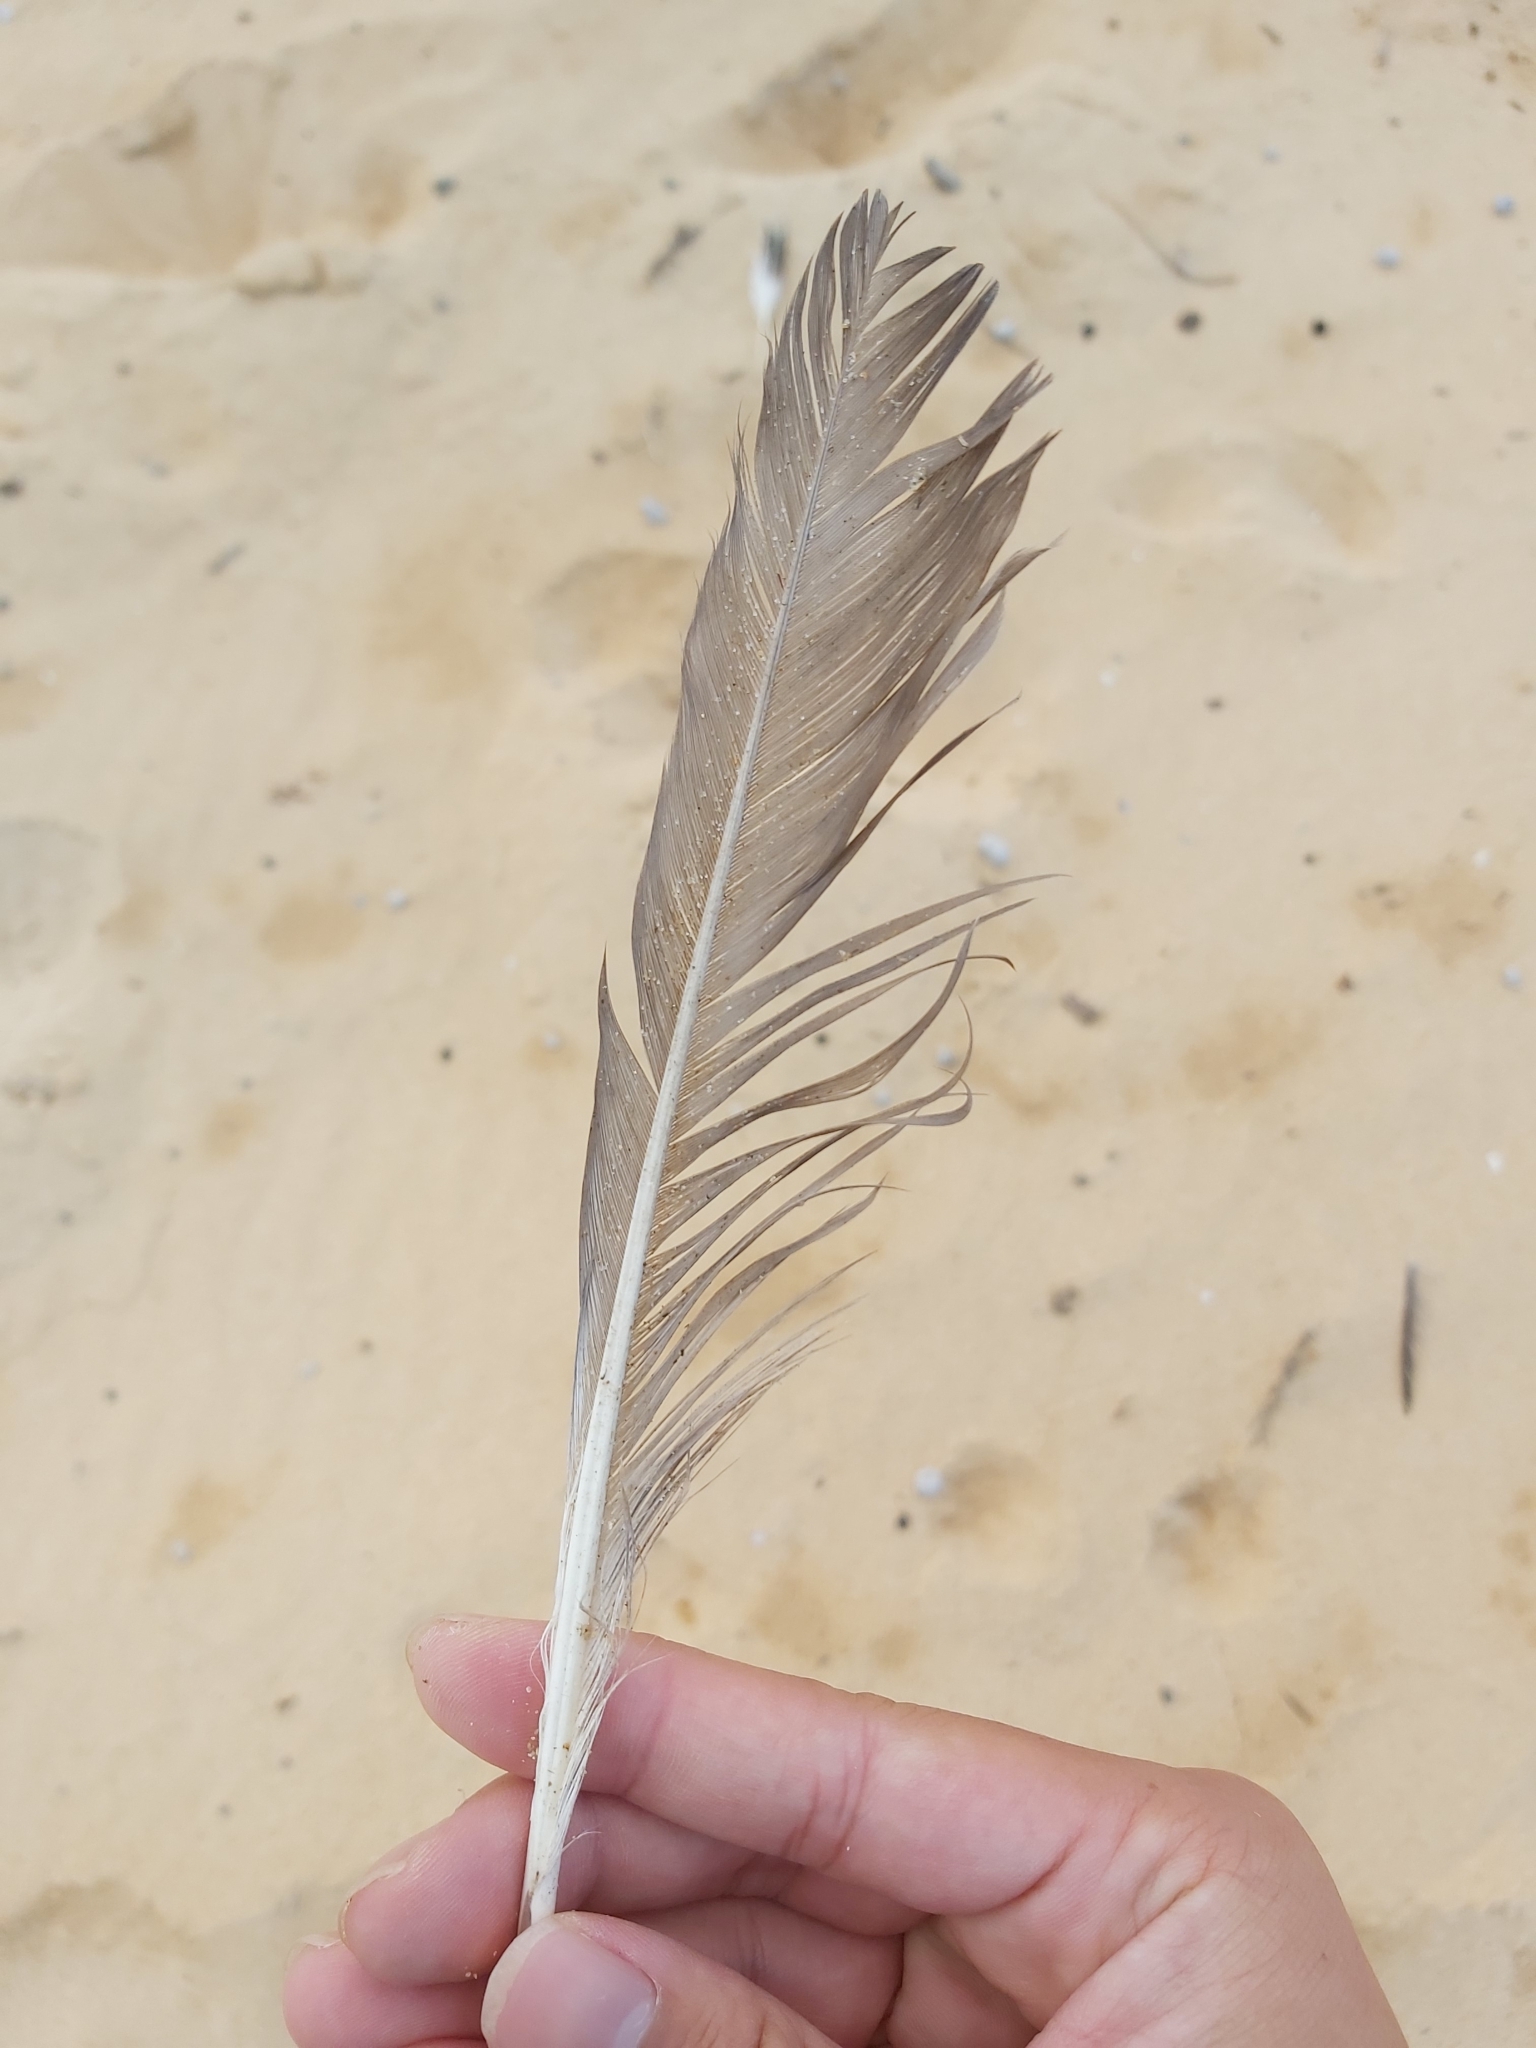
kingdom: Animalia
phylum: Chordata
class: Aves
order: Charadriiformes
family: Laridae
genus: Chroicocephalus
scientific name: Chroicocephalus novaehollandiae
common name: Silver gull
